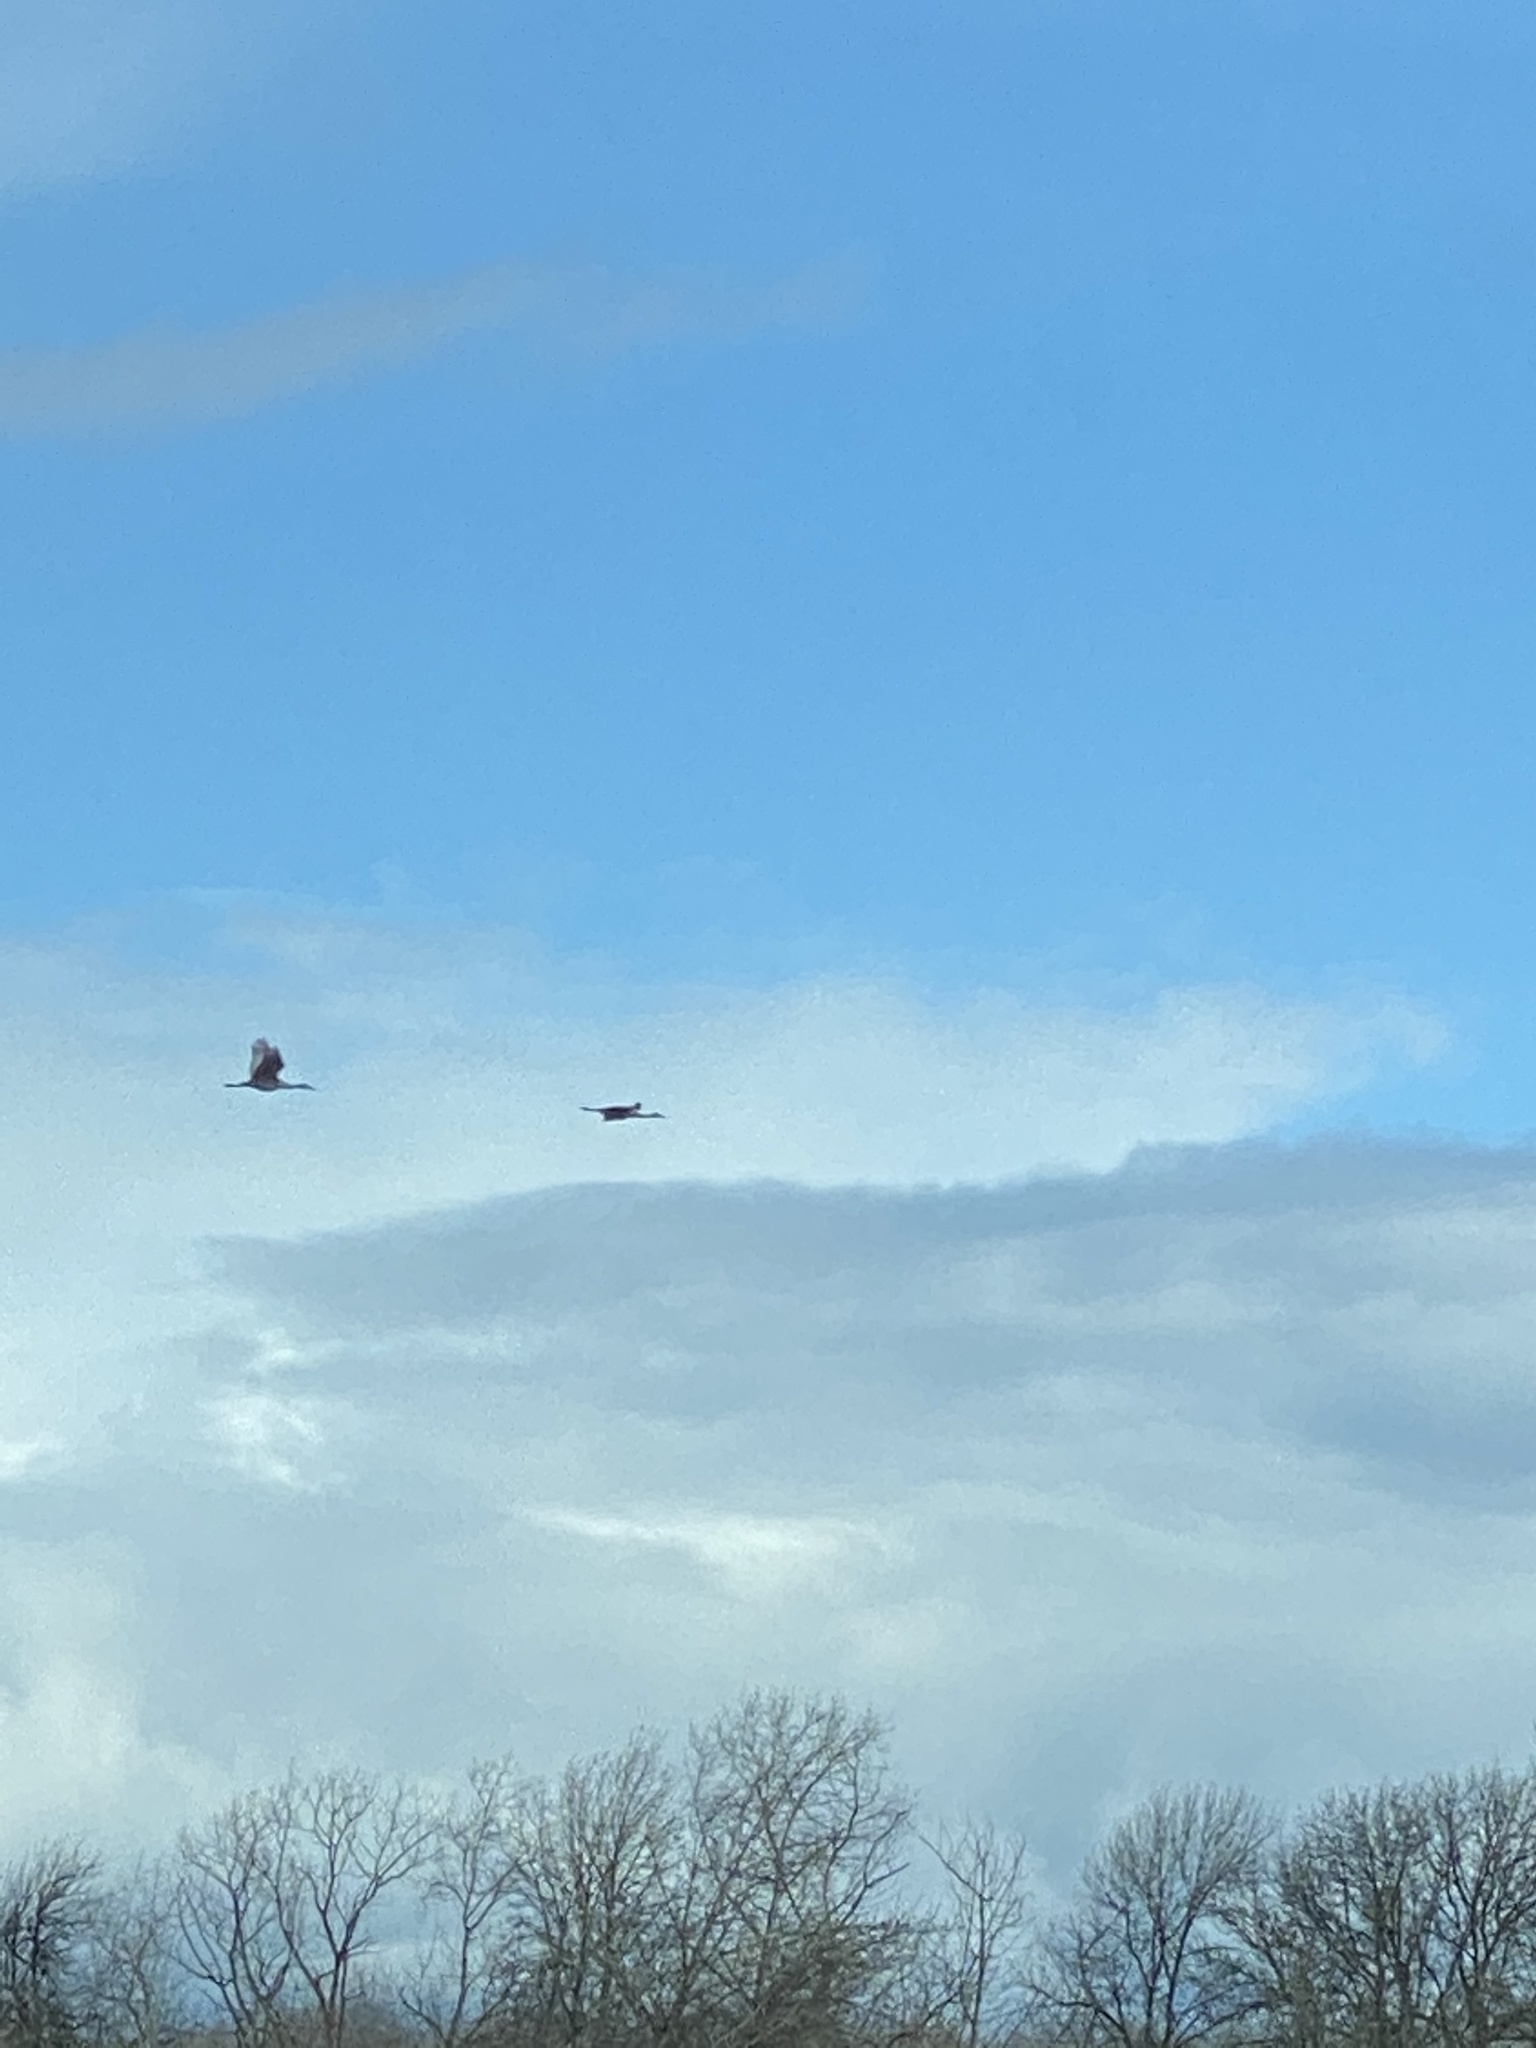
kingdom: Animalia
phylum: Chordata
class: Aves
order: Gruiformes
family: Gruidae
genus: Grus
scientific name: Grus canadensis
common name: Sandhill crane
